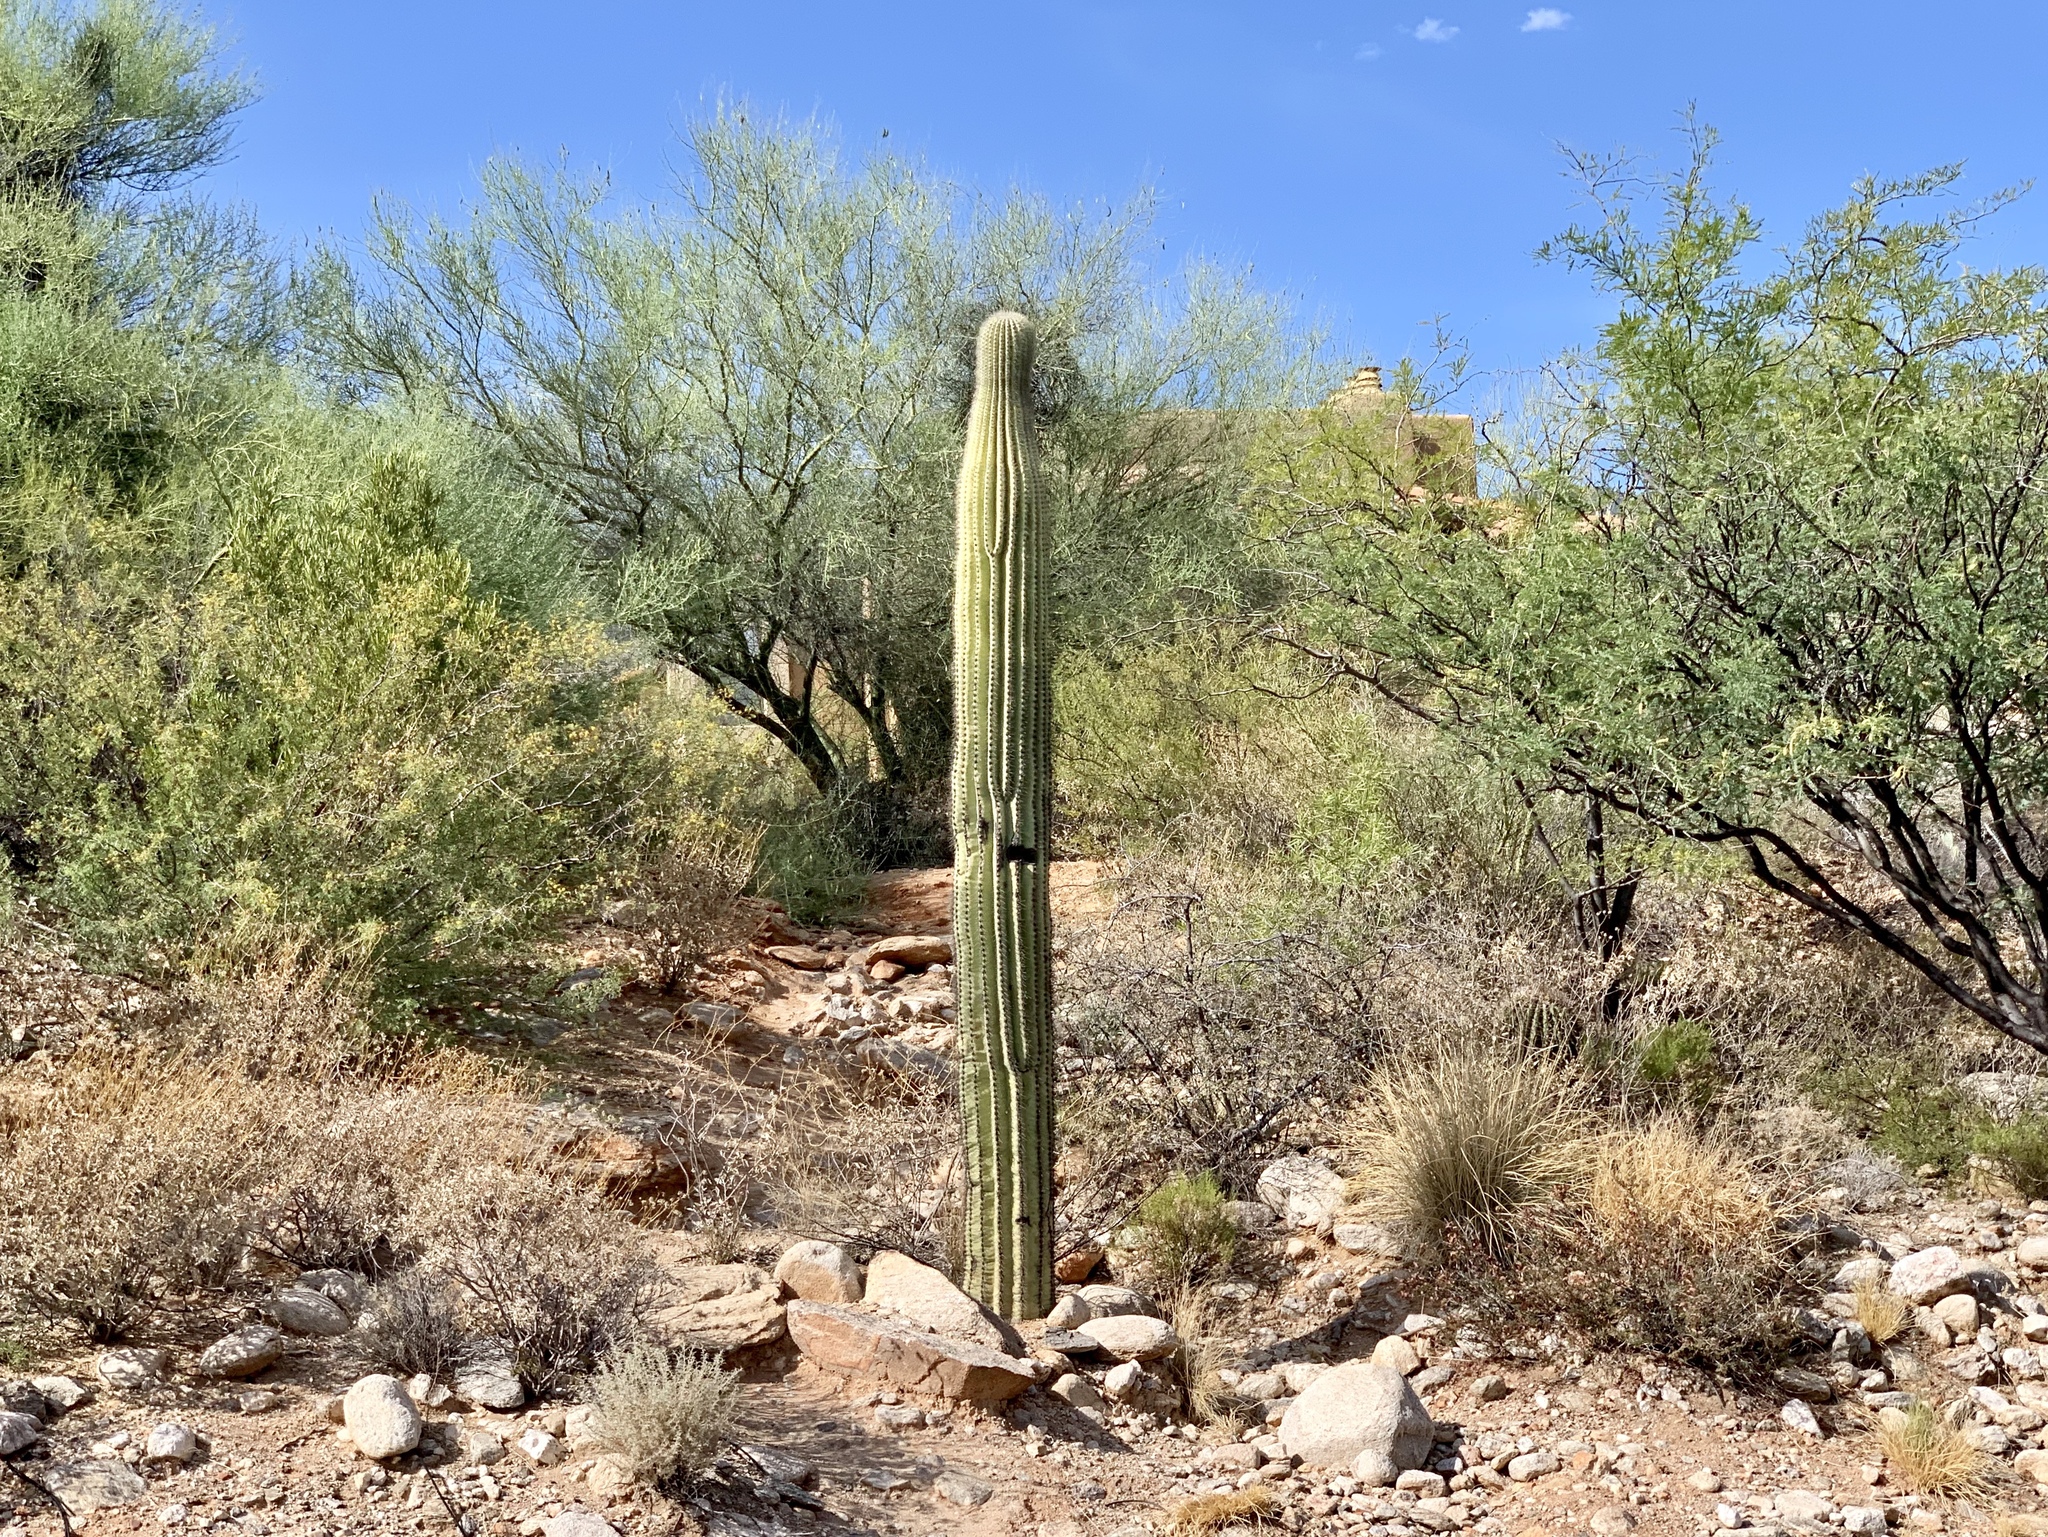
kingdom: Plantae
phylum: Tracheophyta
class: Magnoliopsida
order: Caryophyllales
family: Cactaceae
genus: Carnegiea
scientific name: Carnegiea gigantea
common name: Saguaro
